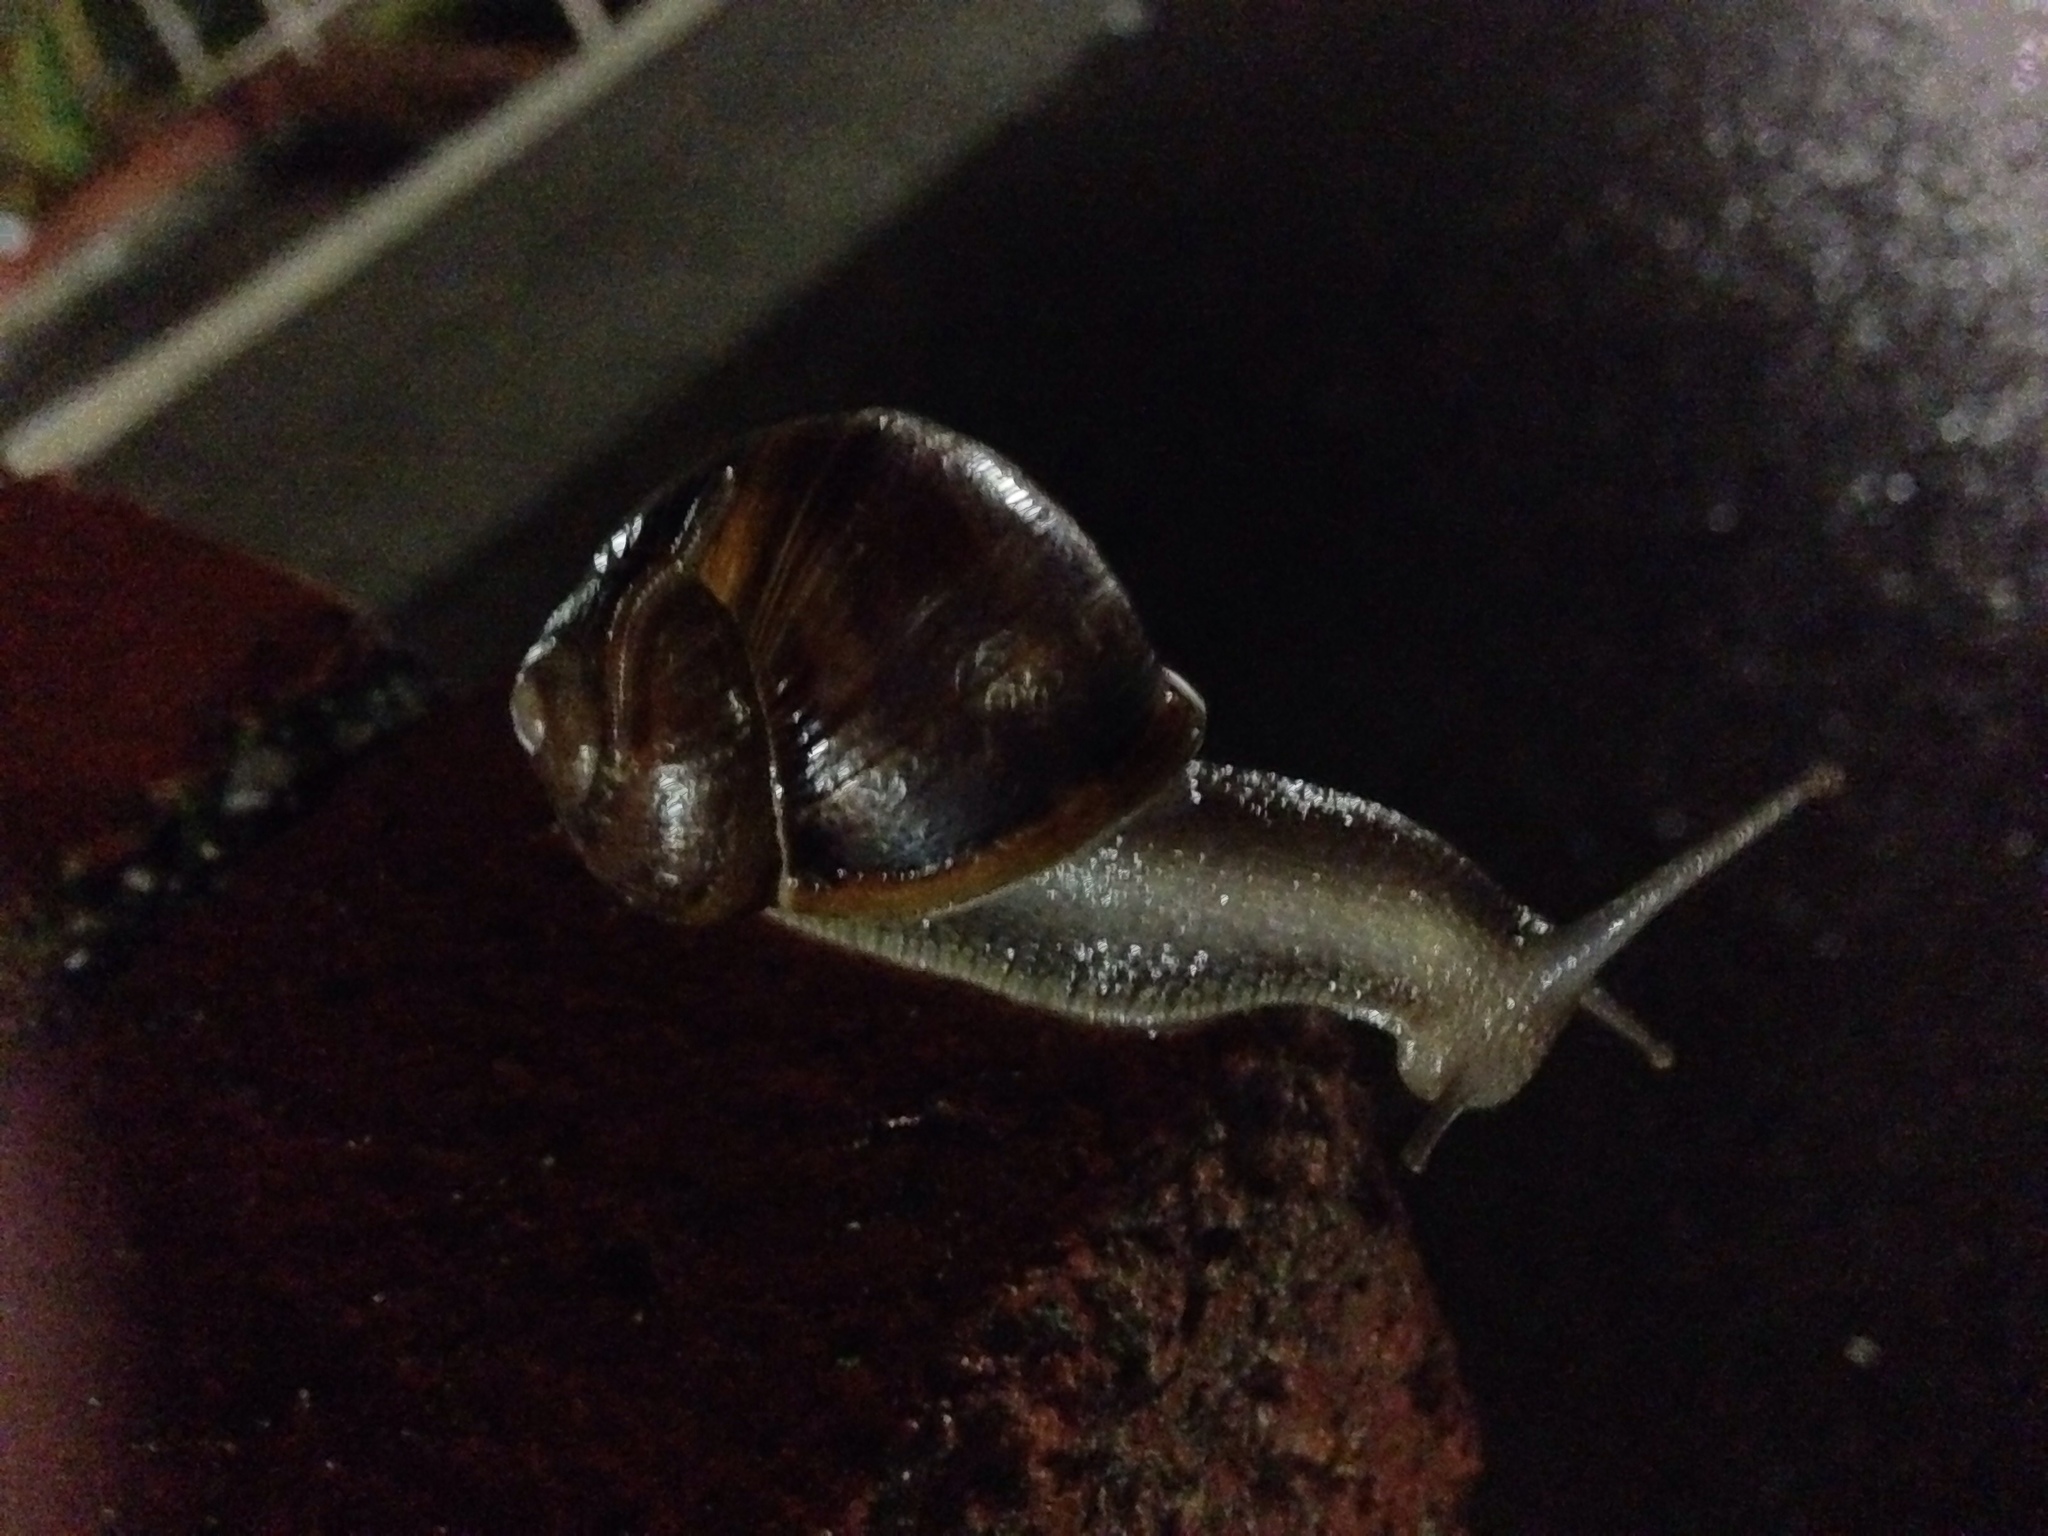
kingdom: Animalia
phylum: Mollusca
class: Gastropoda
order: Stylommatophora
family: Helicidae
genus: Cornu
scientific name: Cornu aspersum
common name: Brown garden snail
